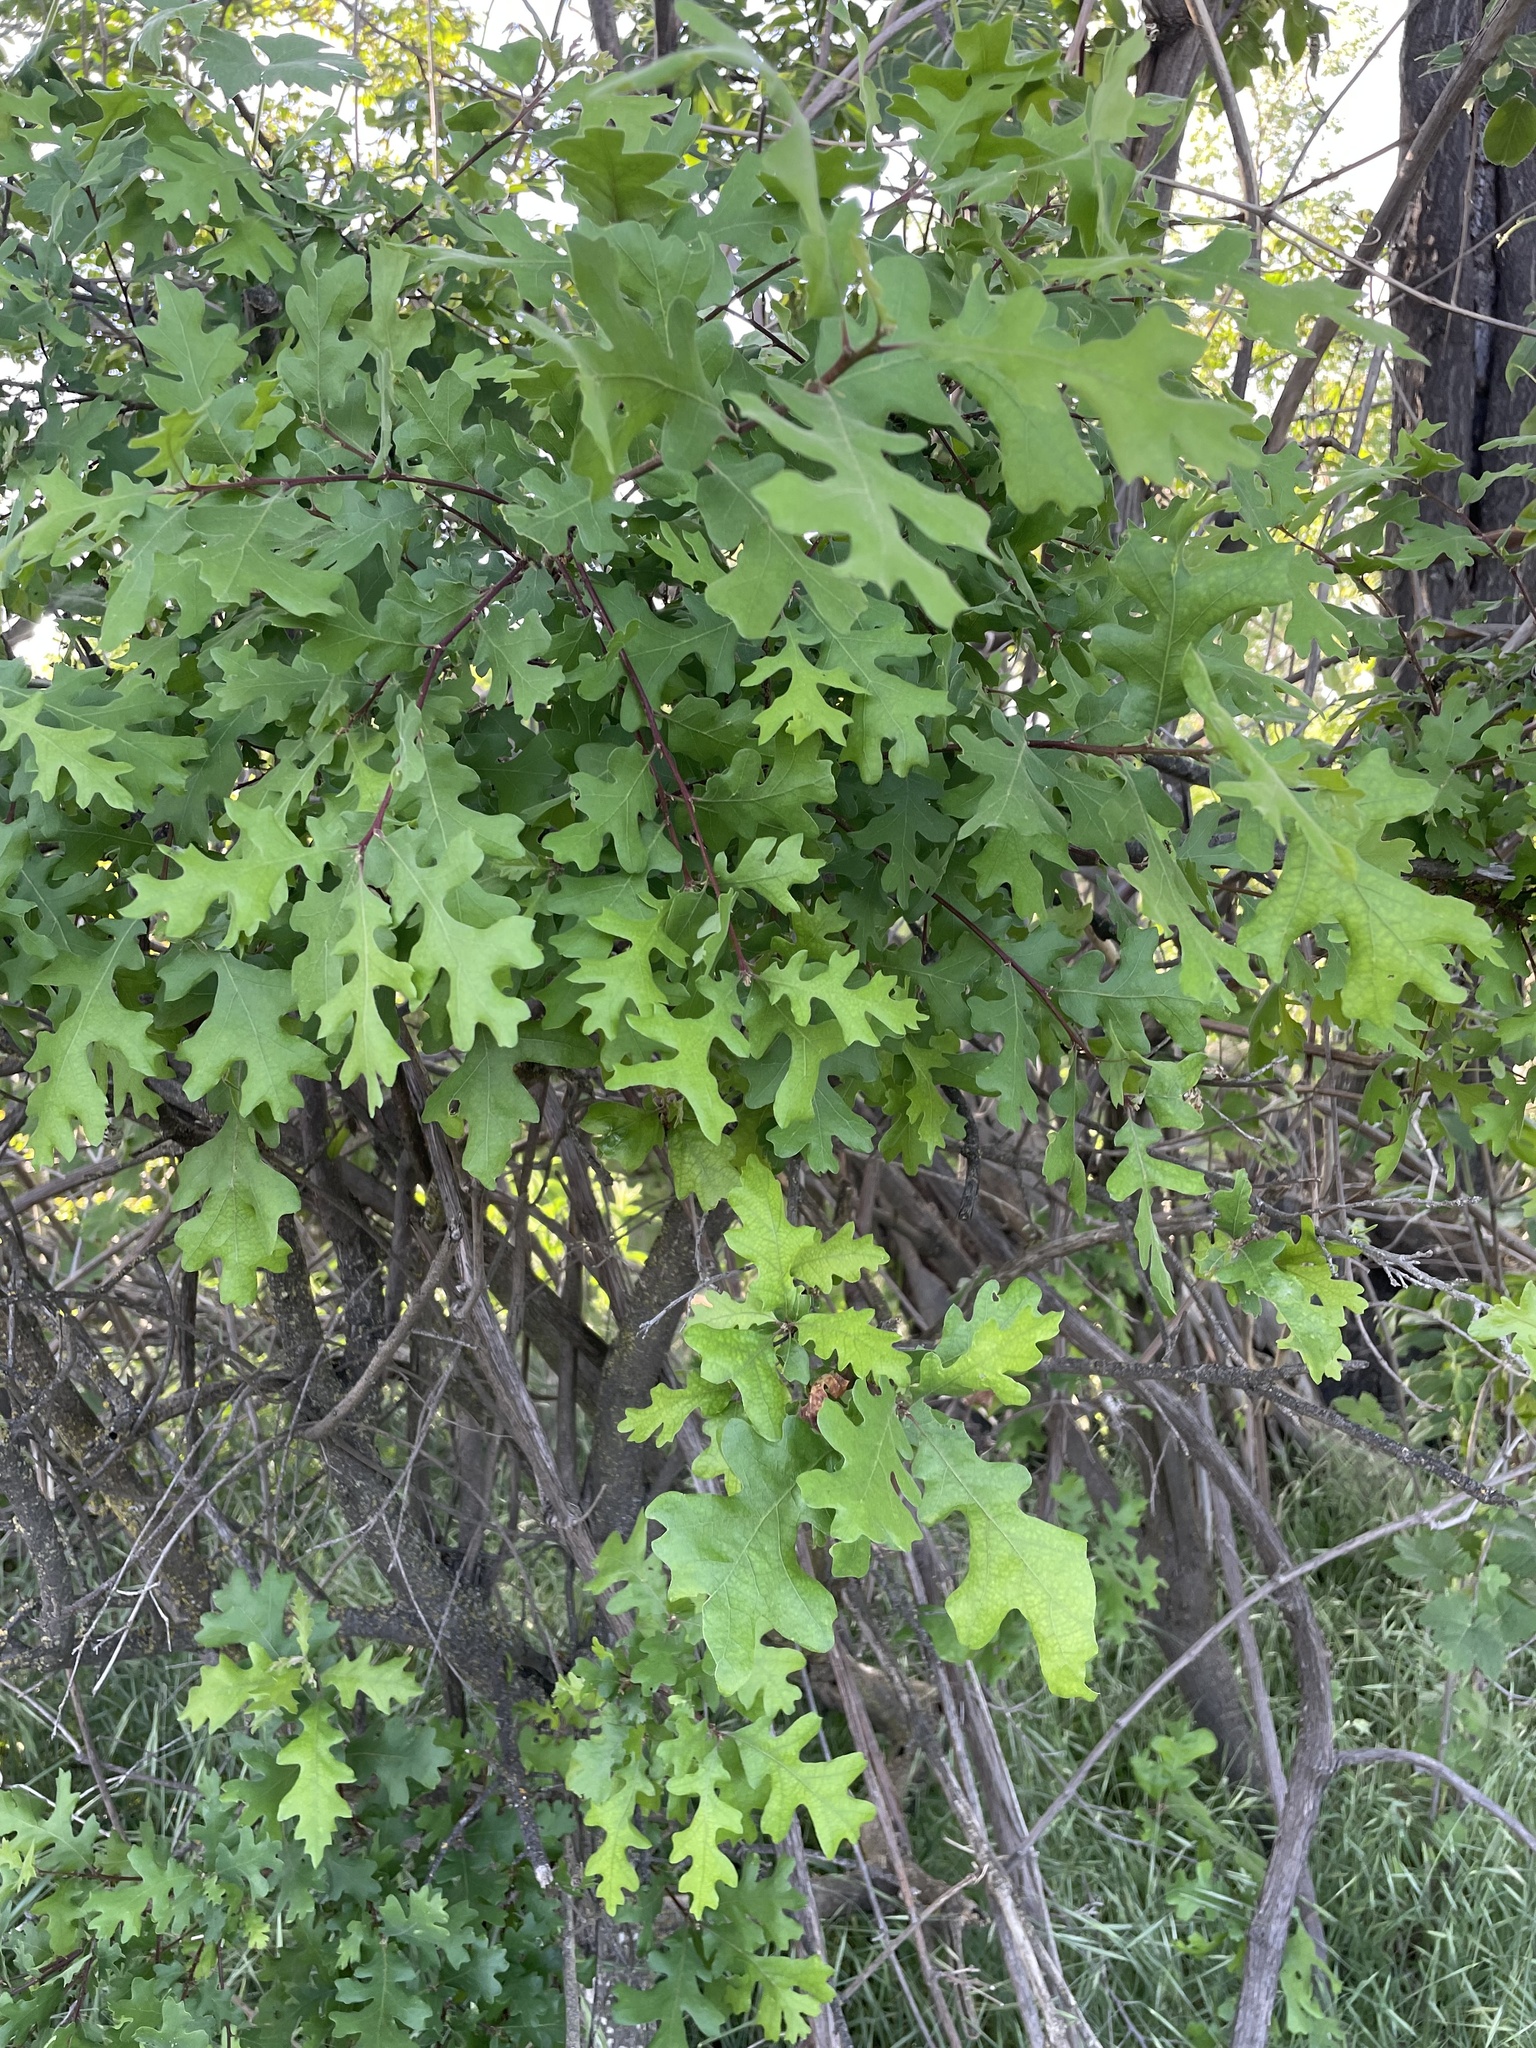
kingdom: Plantae
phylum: Tracheophyta
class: Magnoliopsida
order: Fagales
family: Fagaceae
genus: Quercus
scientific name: Quercus lobata
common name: Valley oak
